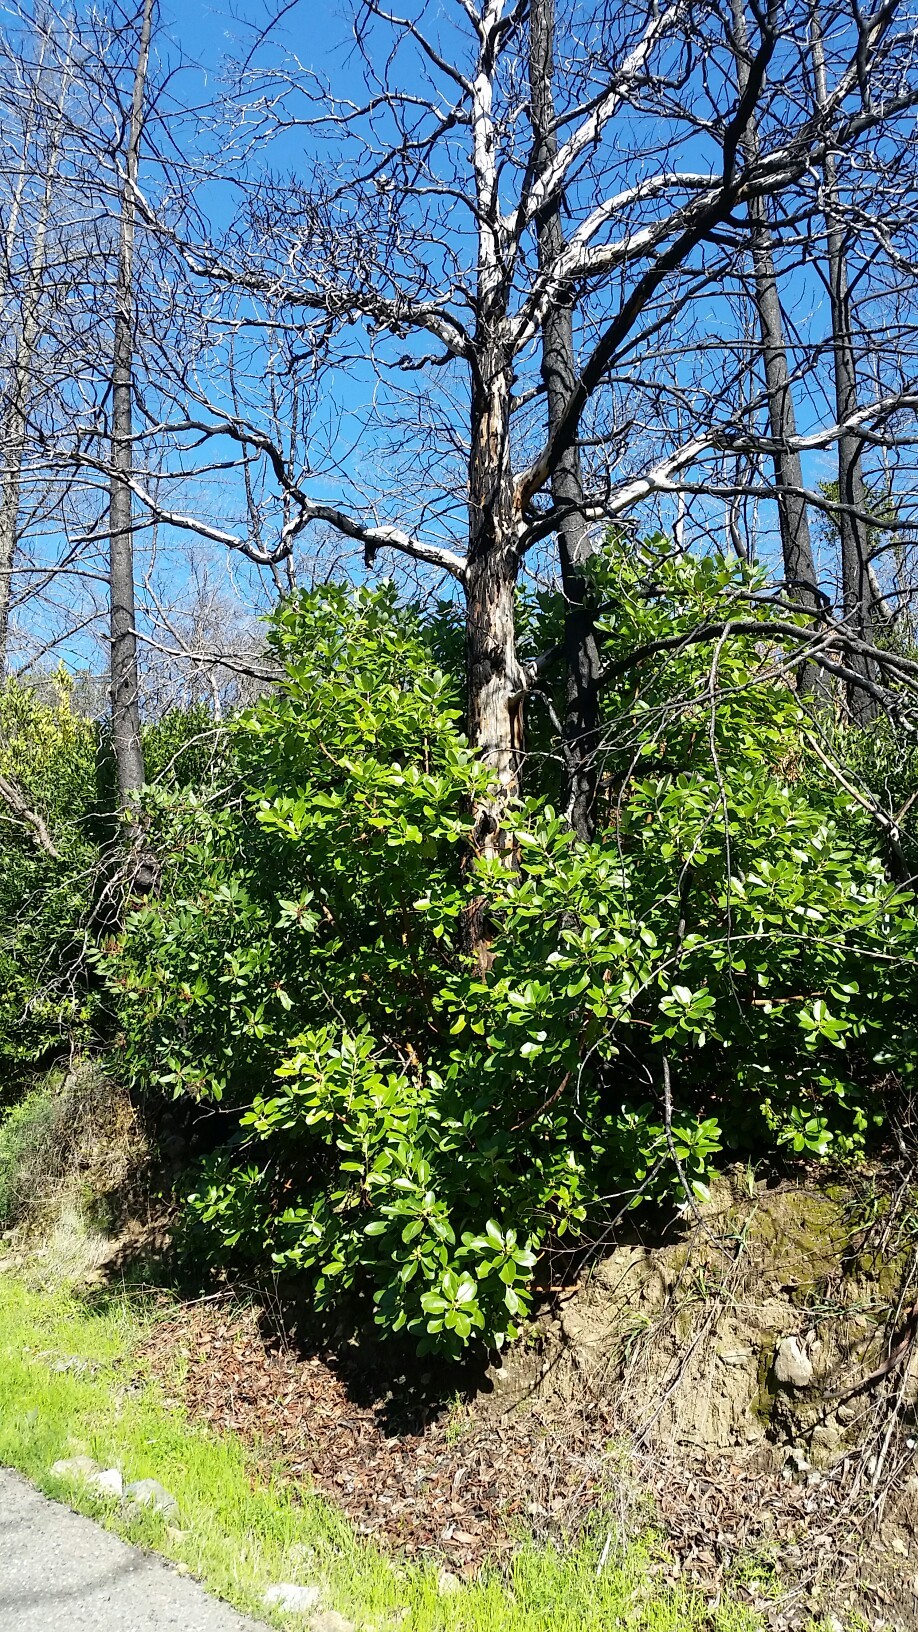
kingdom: Plantae
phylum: Tracheophyta
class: Magnoliopsida
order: Ericales
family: Ericaceae
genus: Arbutus
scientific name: Arbutus menziesii
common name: Pacific madrone
